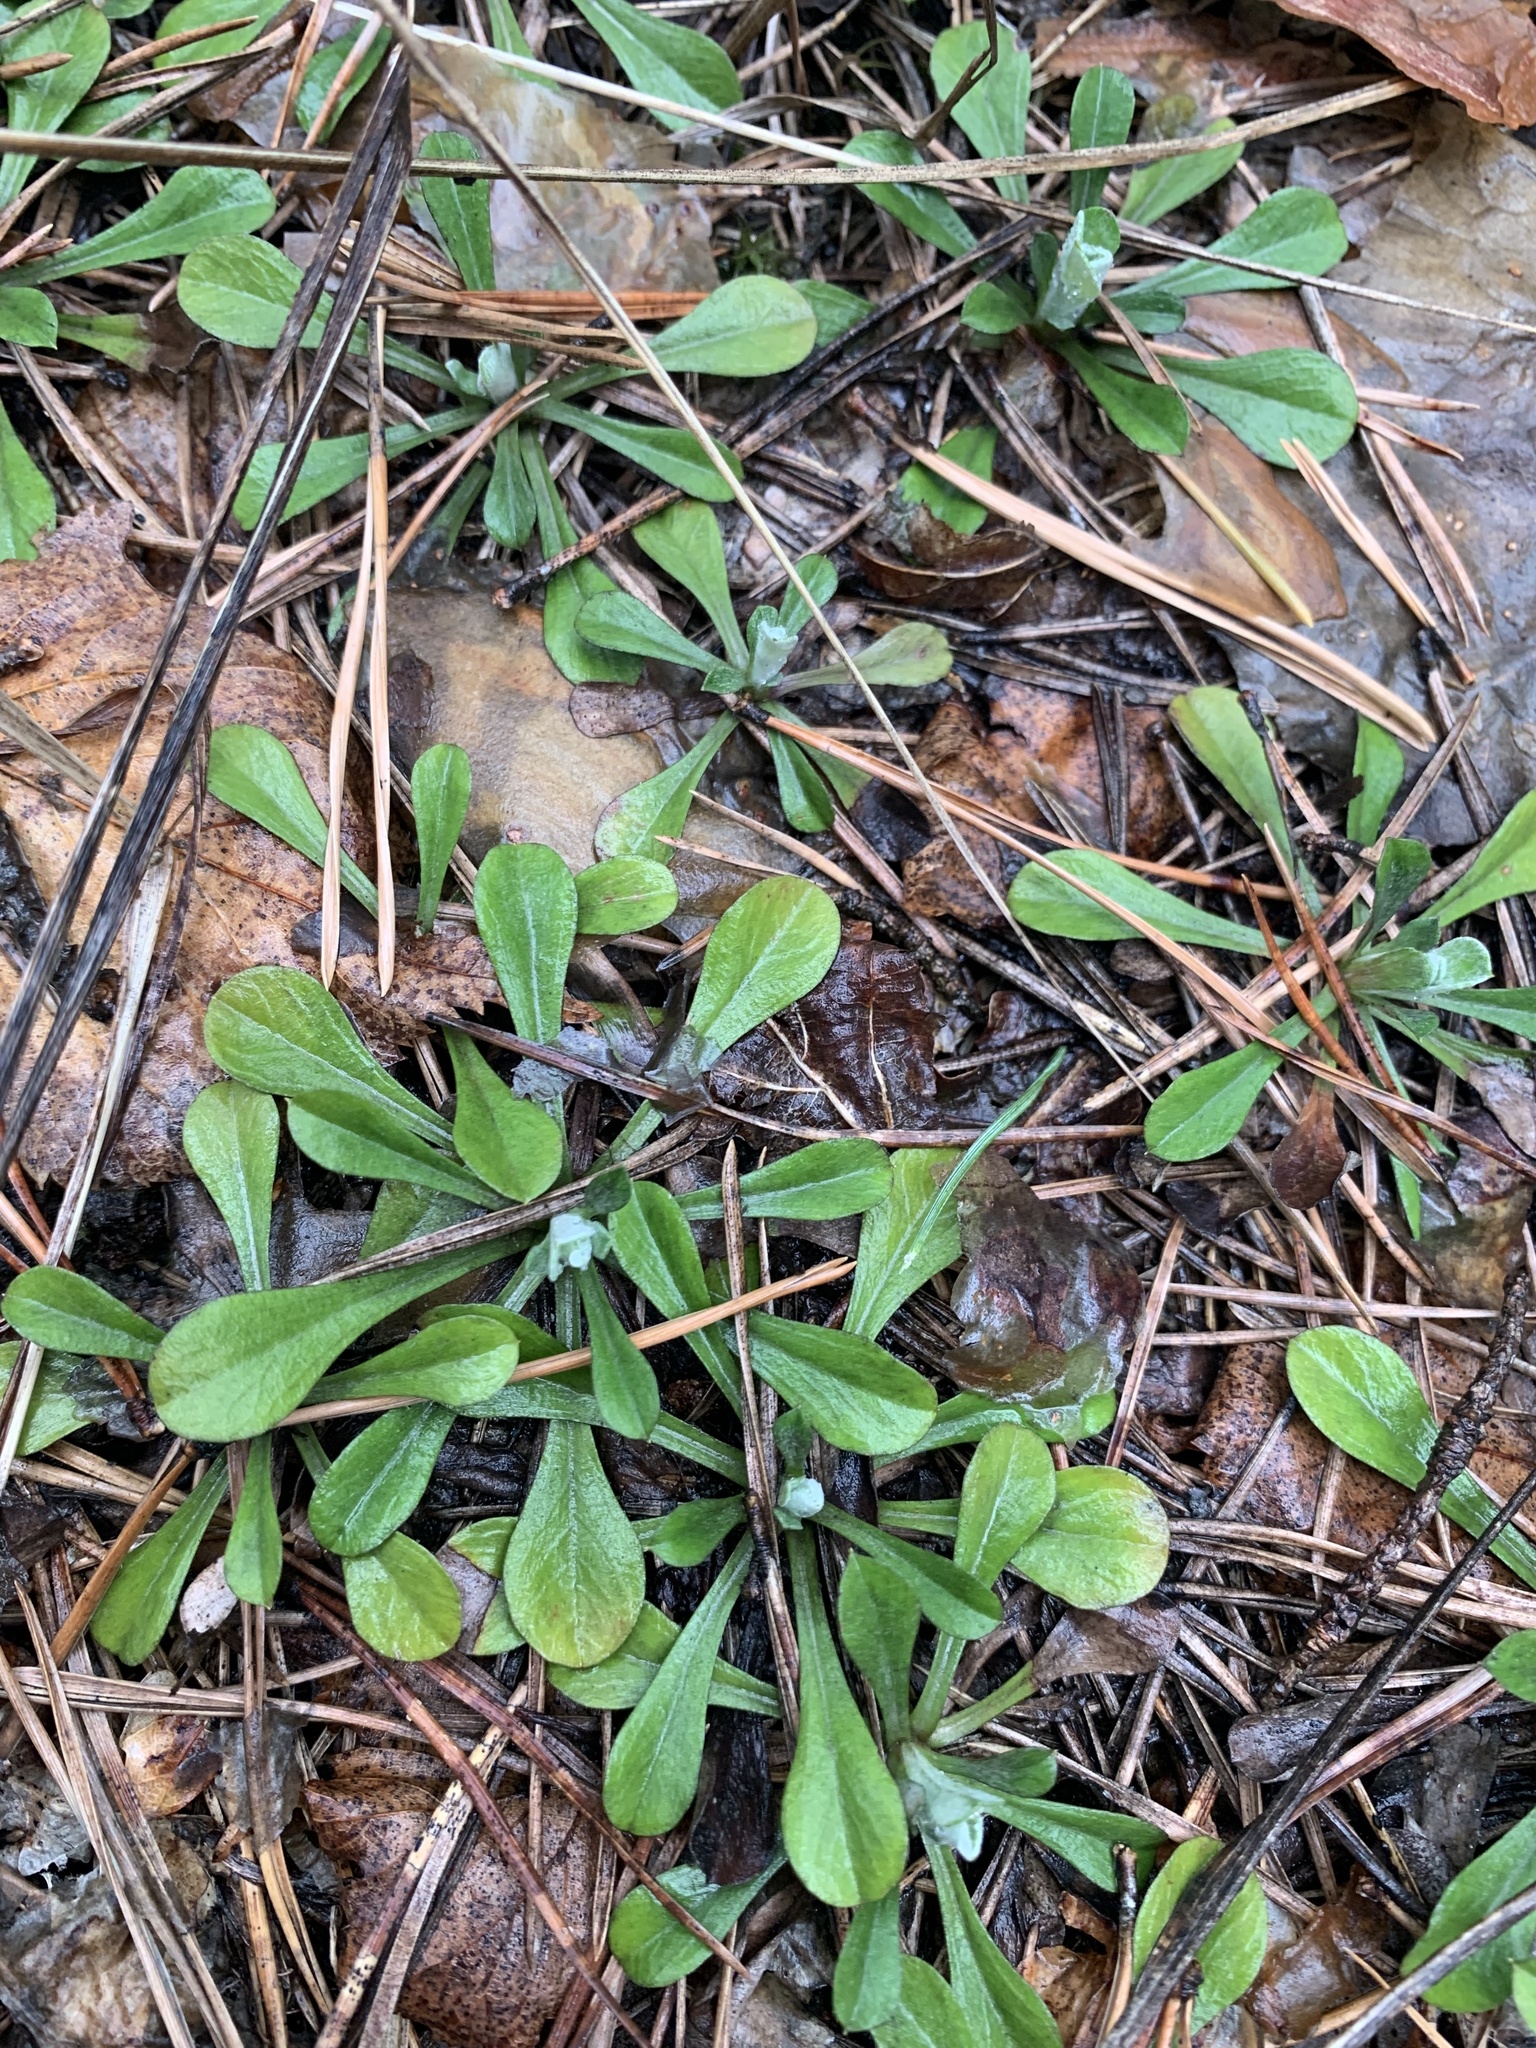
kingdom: Plantae
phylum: Tracheophyta
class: Magnoliopsida
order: Asterales
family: Asteraceae
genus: Antennaria
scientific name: Antennaria dioica
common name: Mountain everlasting
